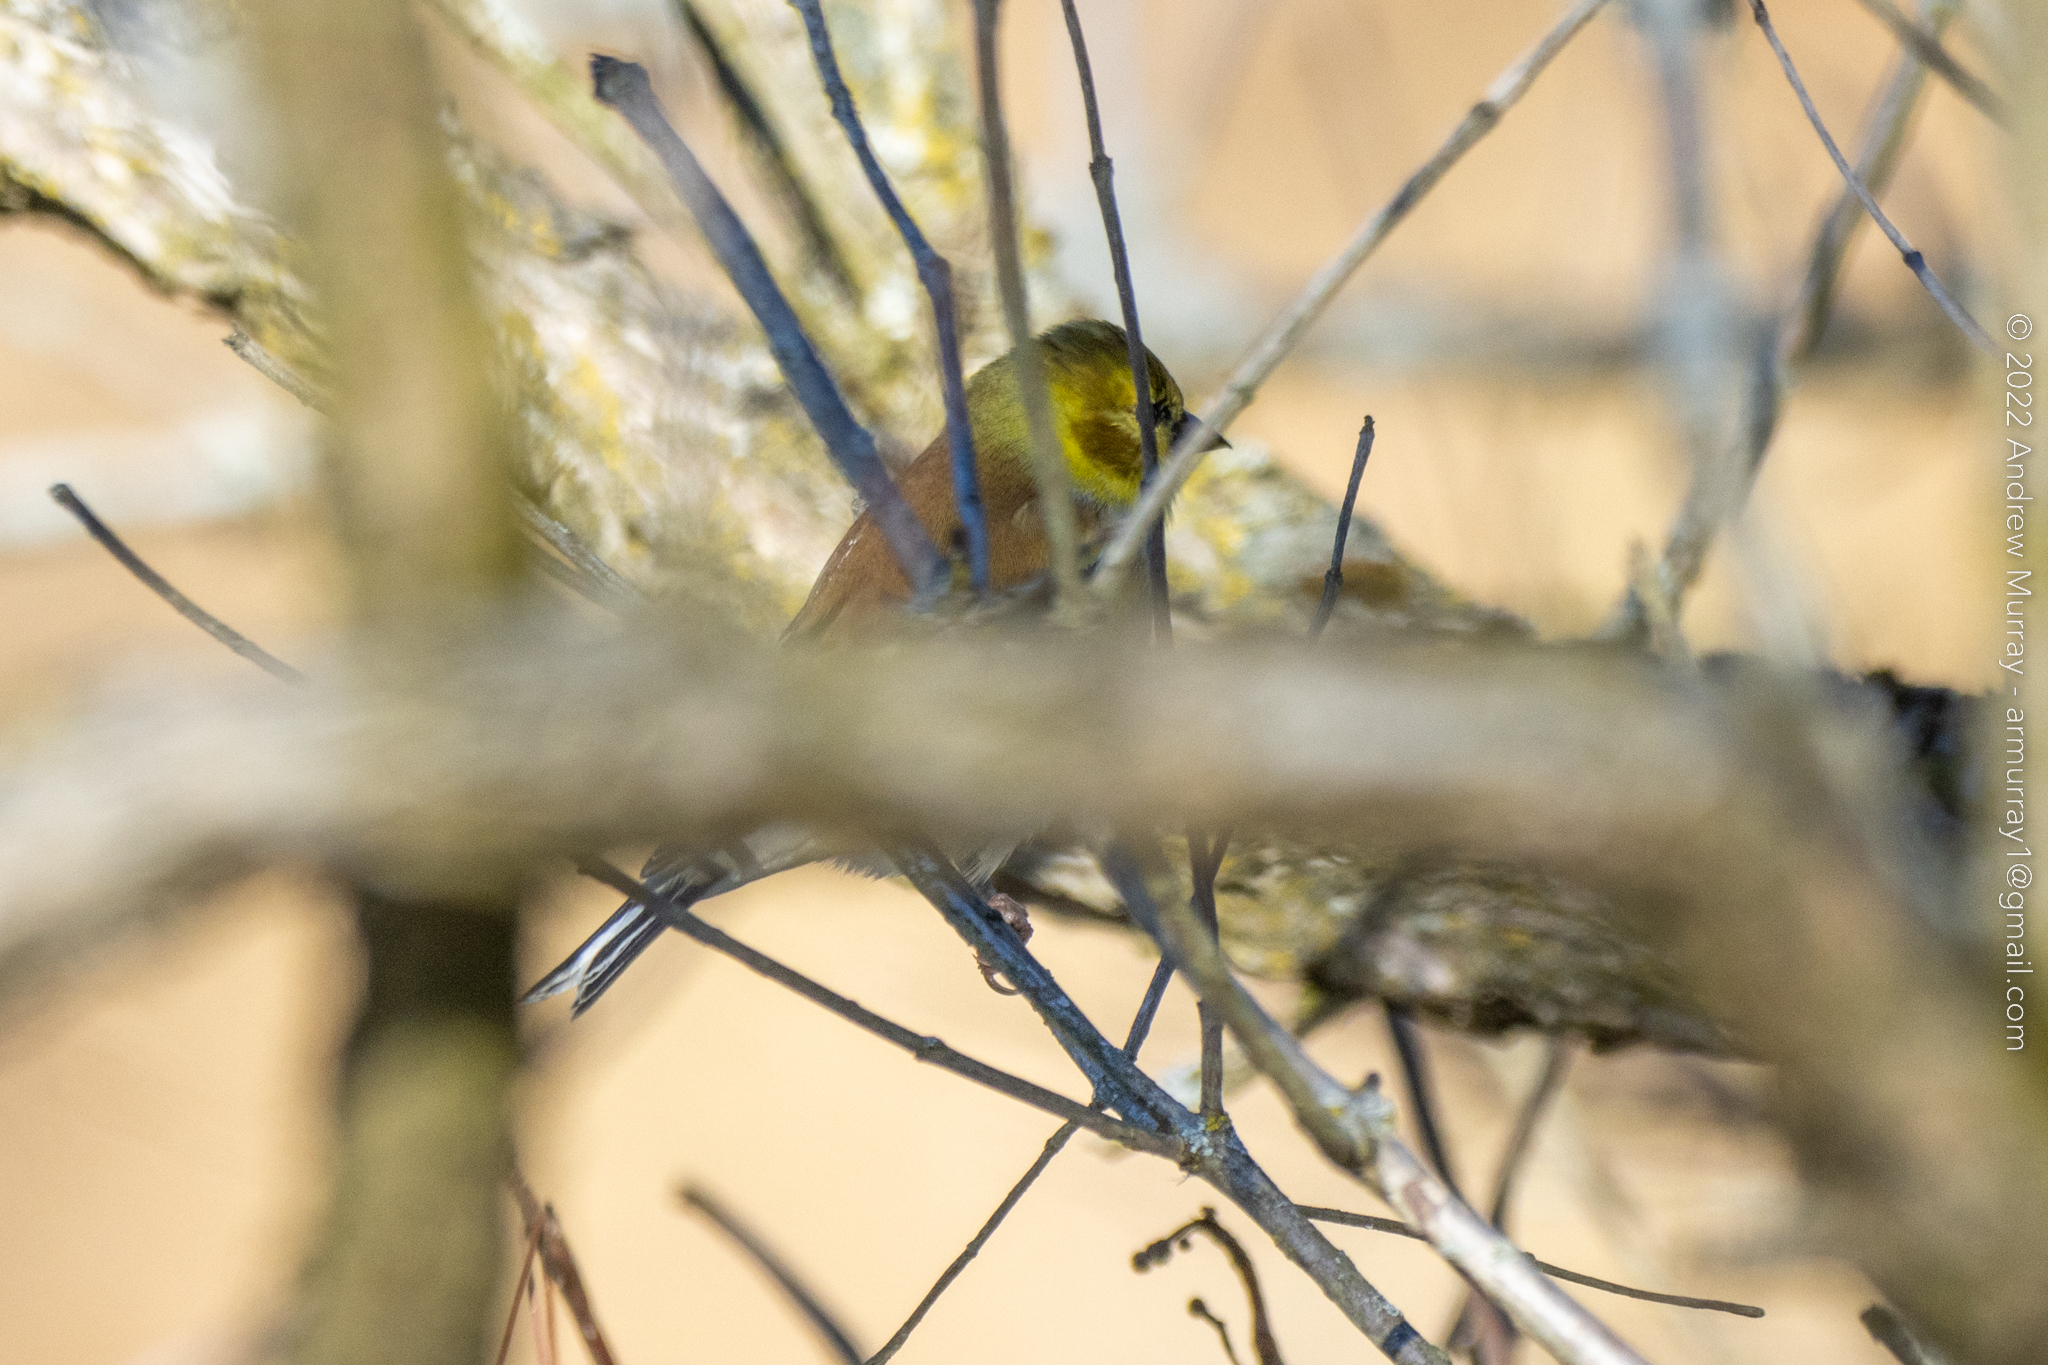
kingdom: Animalia
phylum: Chordata
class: Aves
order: Passeriformes
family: Fringillidae
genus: Spinus
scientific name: Spinus tristis
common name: American goldfinch
